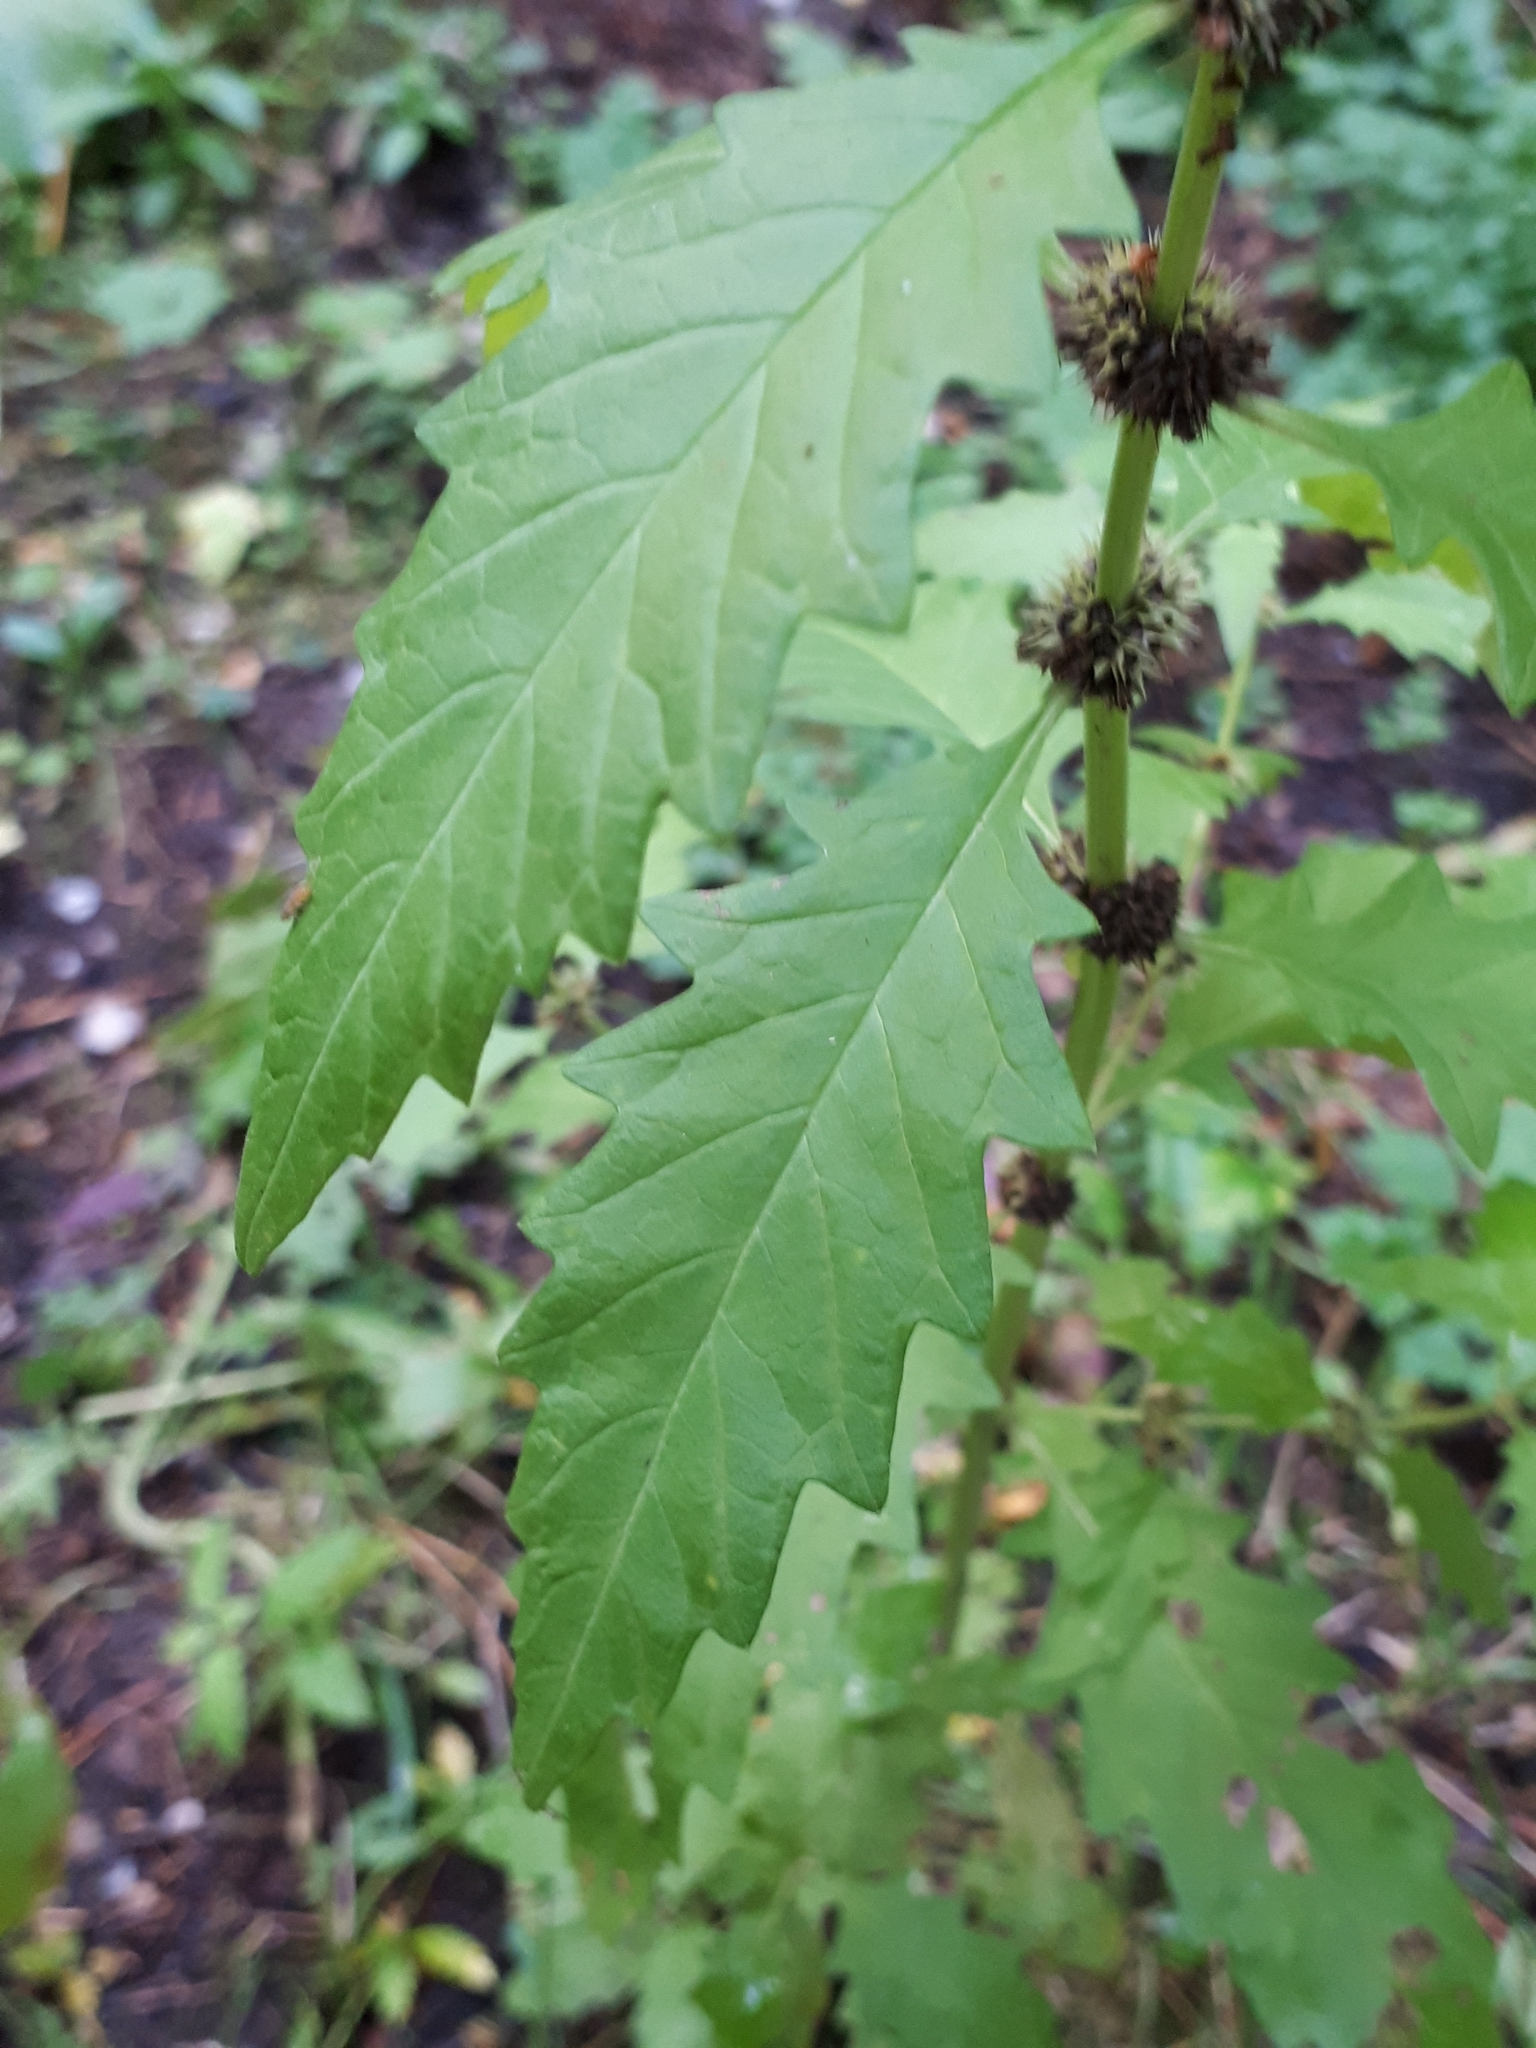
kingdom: Plantae
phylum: Tracheophyta
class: Magnoliopsida
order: Lamiales
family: Lamiaceae
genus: Lycopus
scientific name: Lycopus europaeus
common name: European bugleweed
